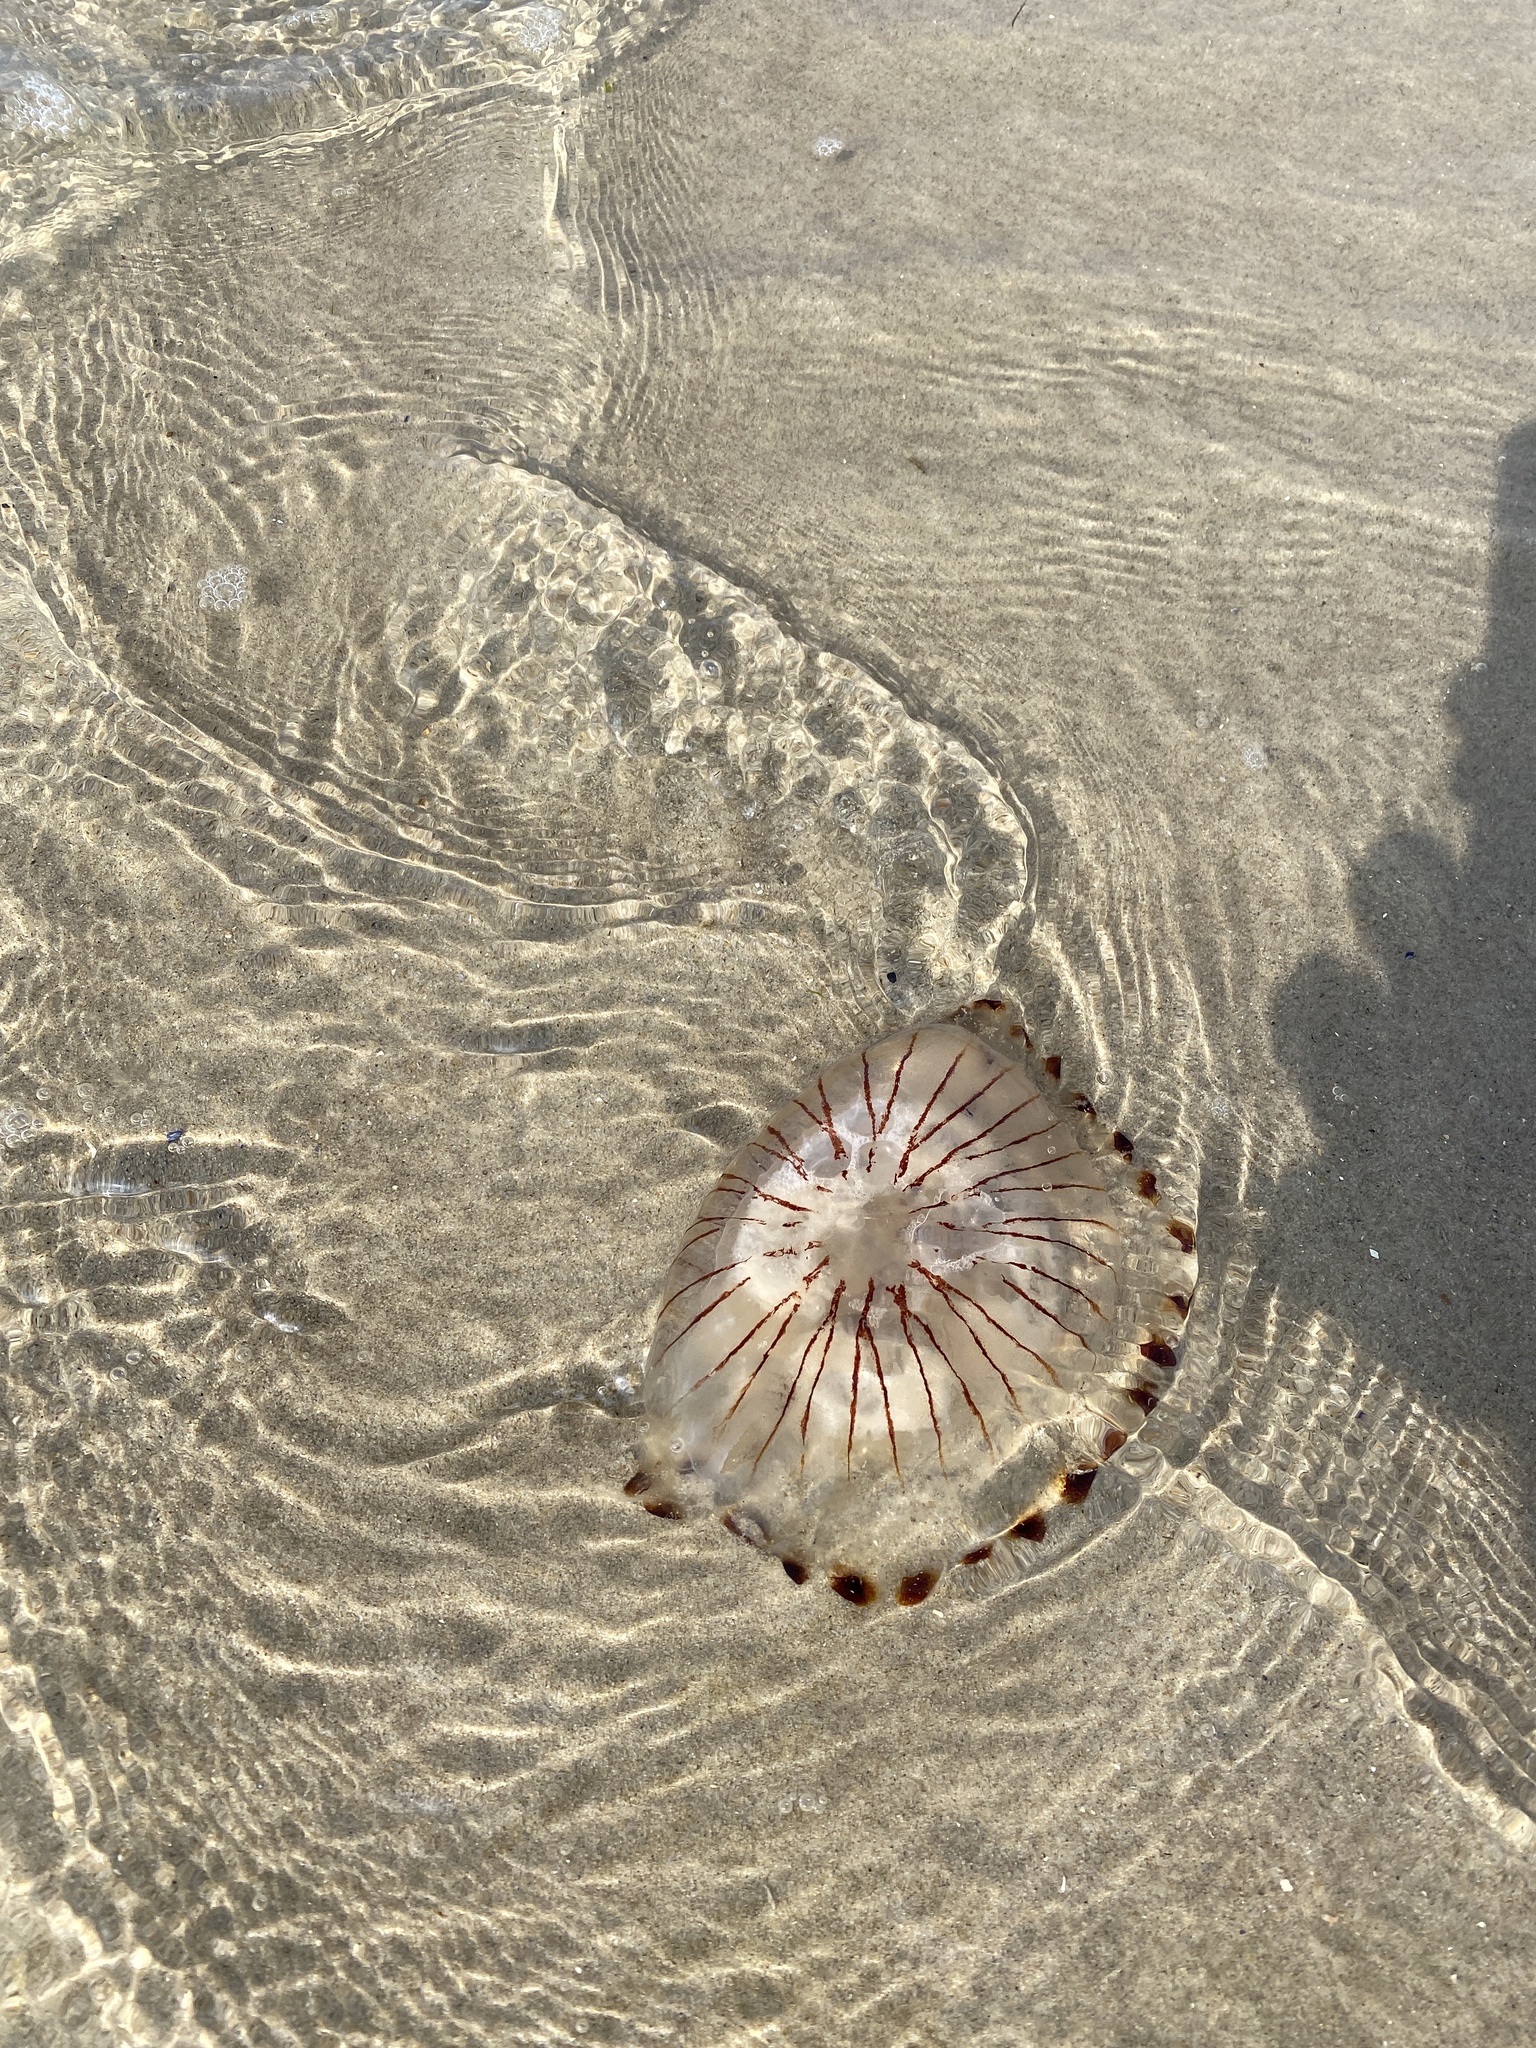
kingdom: Animalia
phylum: Cnidaria
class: Scyphozoa
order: Semaeostomeae
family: Pelagiidae
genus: Chrysaora
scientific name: Chrysaora hysoscella
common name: Compass jellyfish
